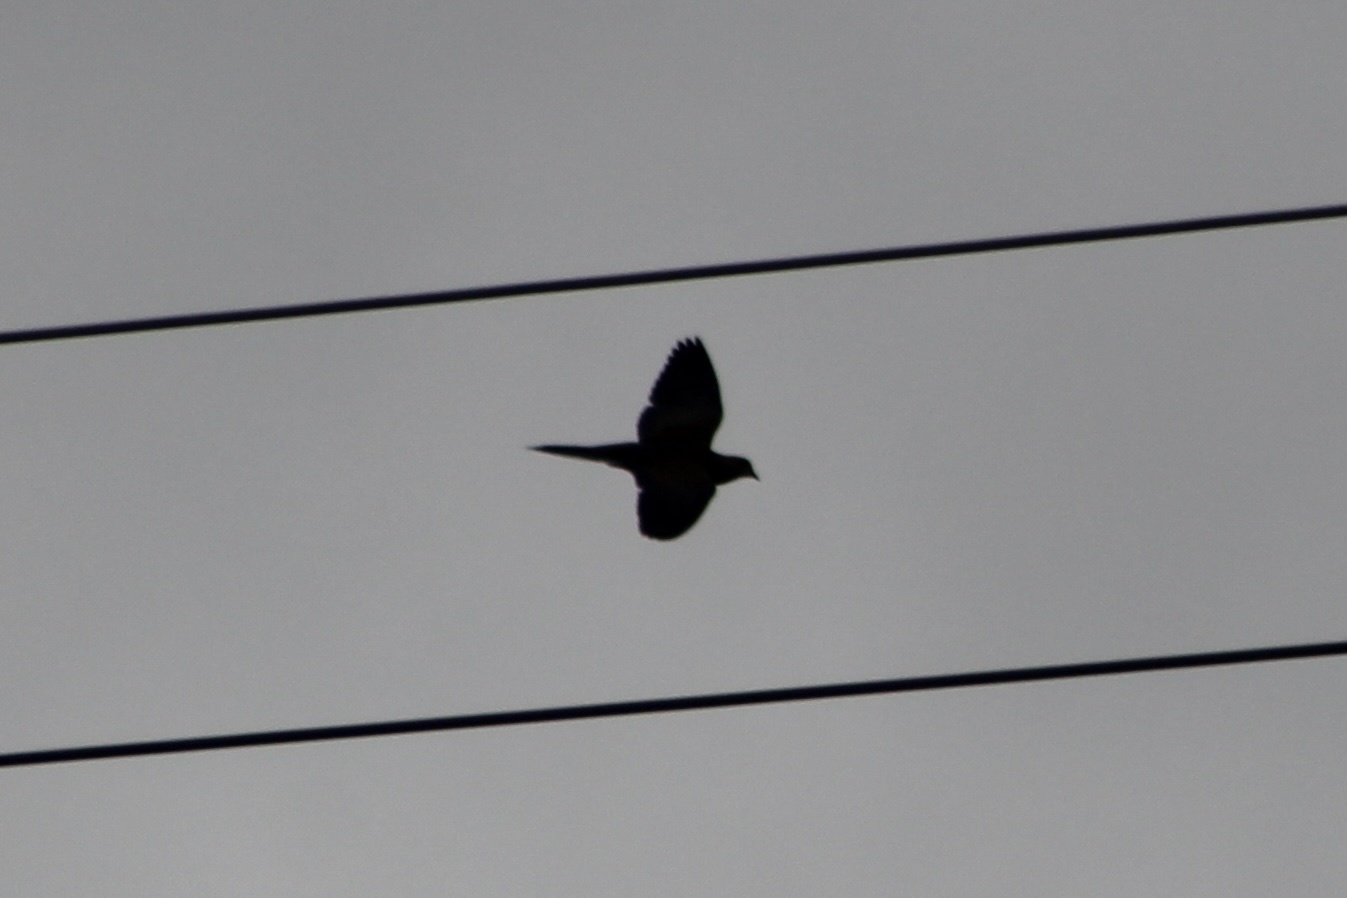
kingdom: Animalia
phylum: Chordata
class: Aves
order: Columbiformes
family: Columbidae
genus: Zenaida
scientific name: Zenaida macroura
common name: Mourning dove
